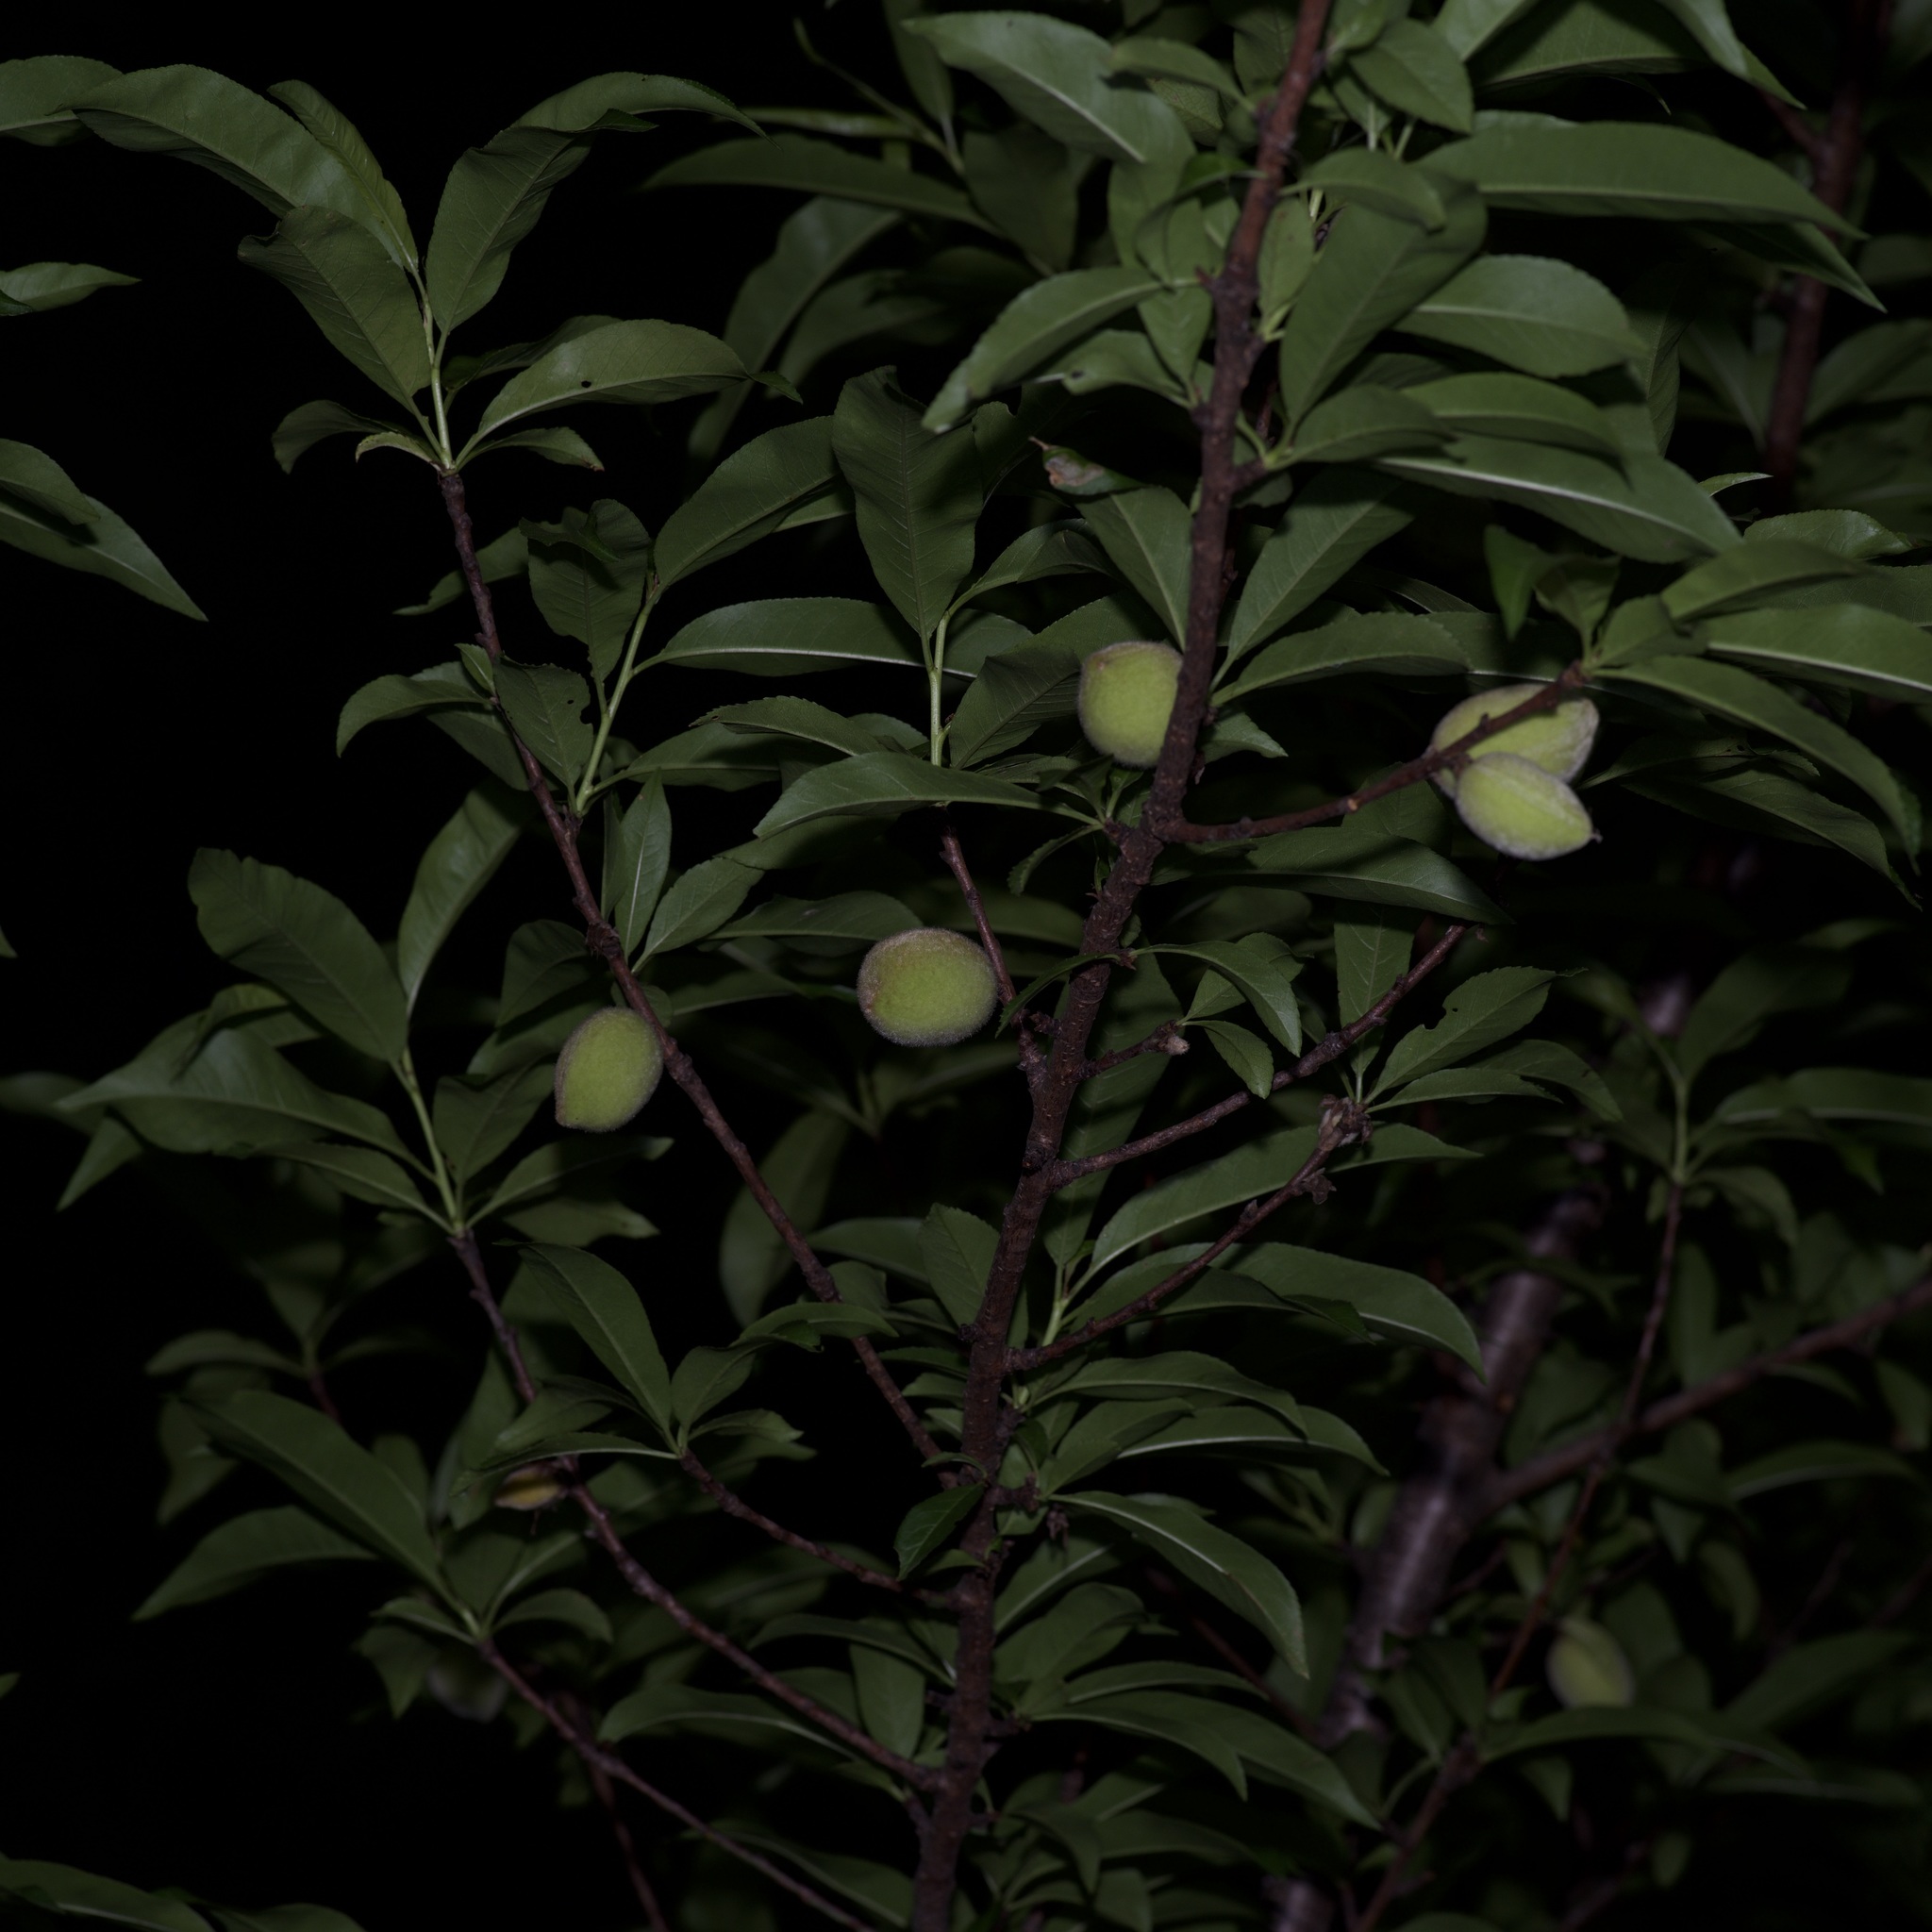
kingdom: Plantae
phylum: Tracheophyta
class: Magnoliopsida
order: Rosales
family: Rosaceae
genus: Prunus
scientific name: Prunus persica
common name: Peach
